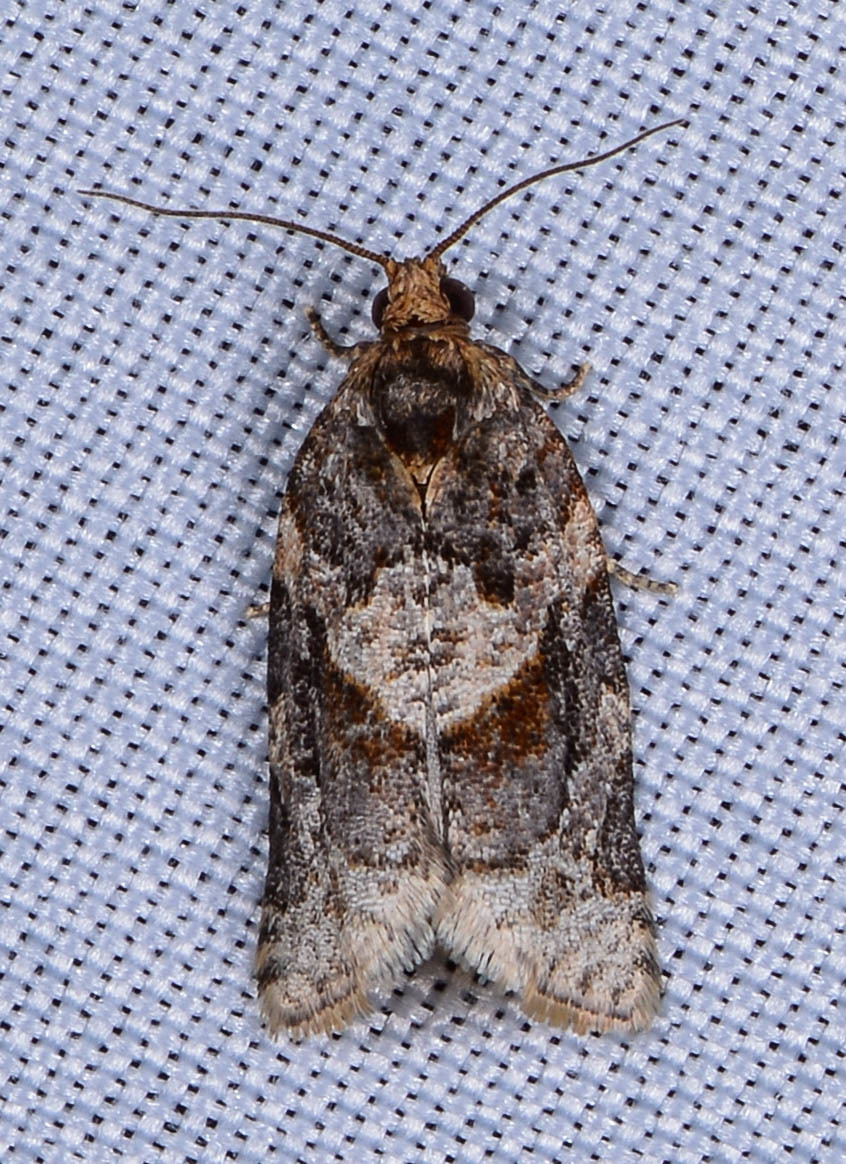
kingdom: Animalia
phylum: Arthropoda
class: Insecta
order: Lepidoptera
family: Tortricidae
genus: Argyrotaenia
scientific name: Argyrotaenia velutinana
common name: Red-banded leafroller moth
